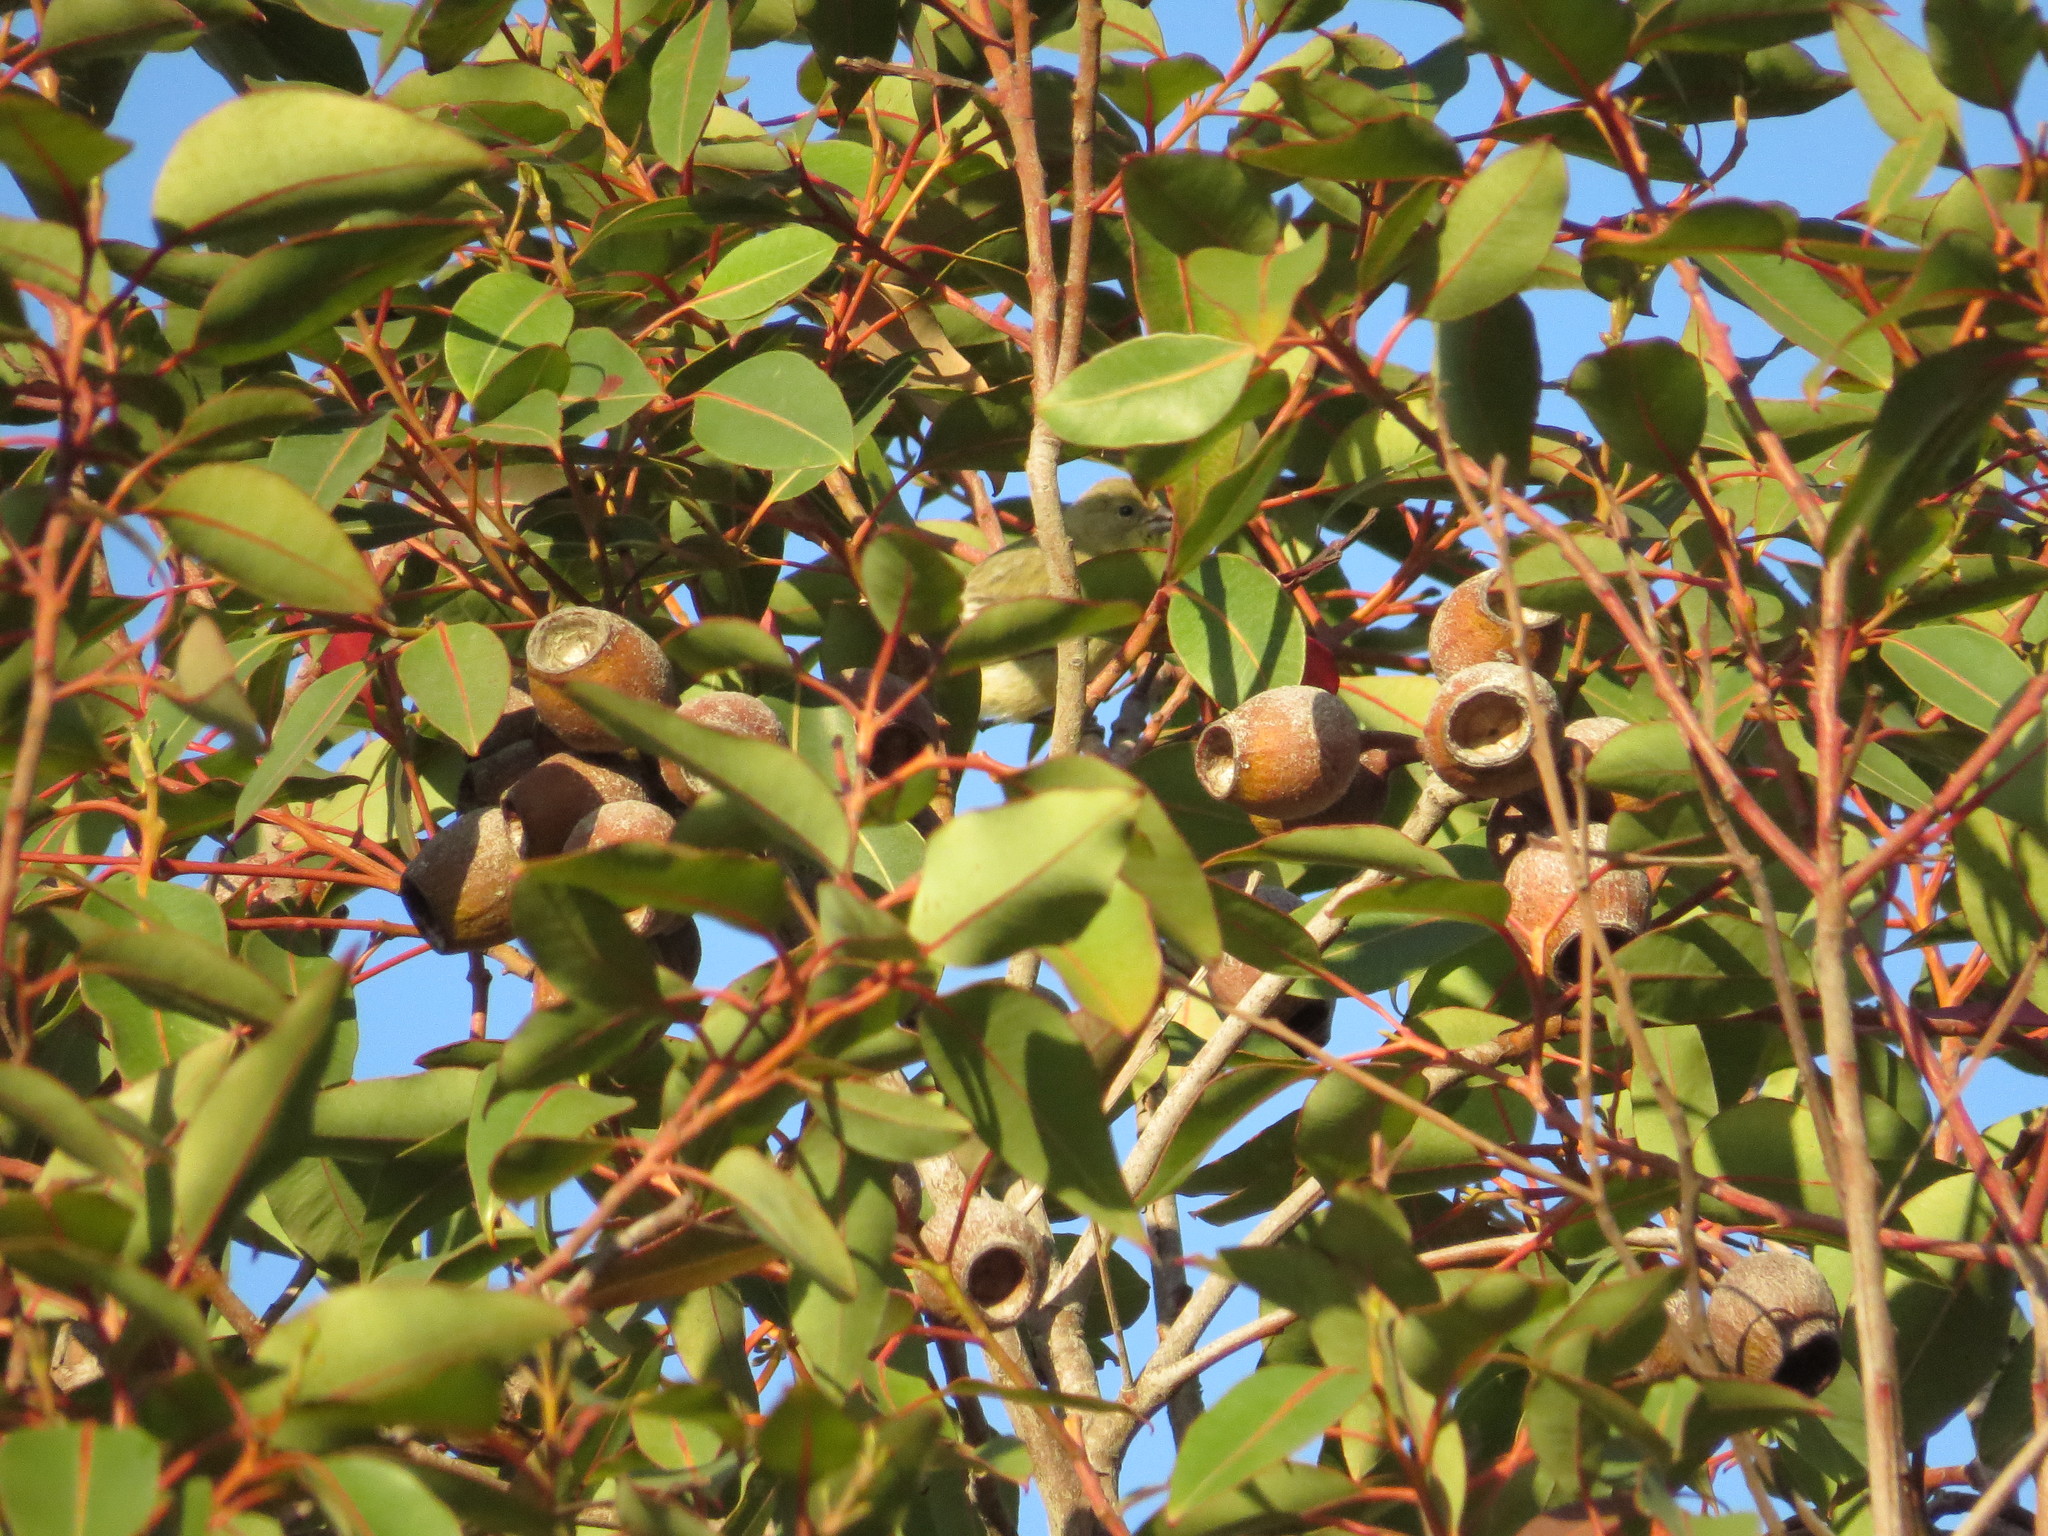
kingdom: Animalia
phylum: Chordata
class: Aves
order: Passeriformes
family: Fringillidae
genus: Spinus
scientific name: Spinus psaltria
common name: Lesser goldfinch
